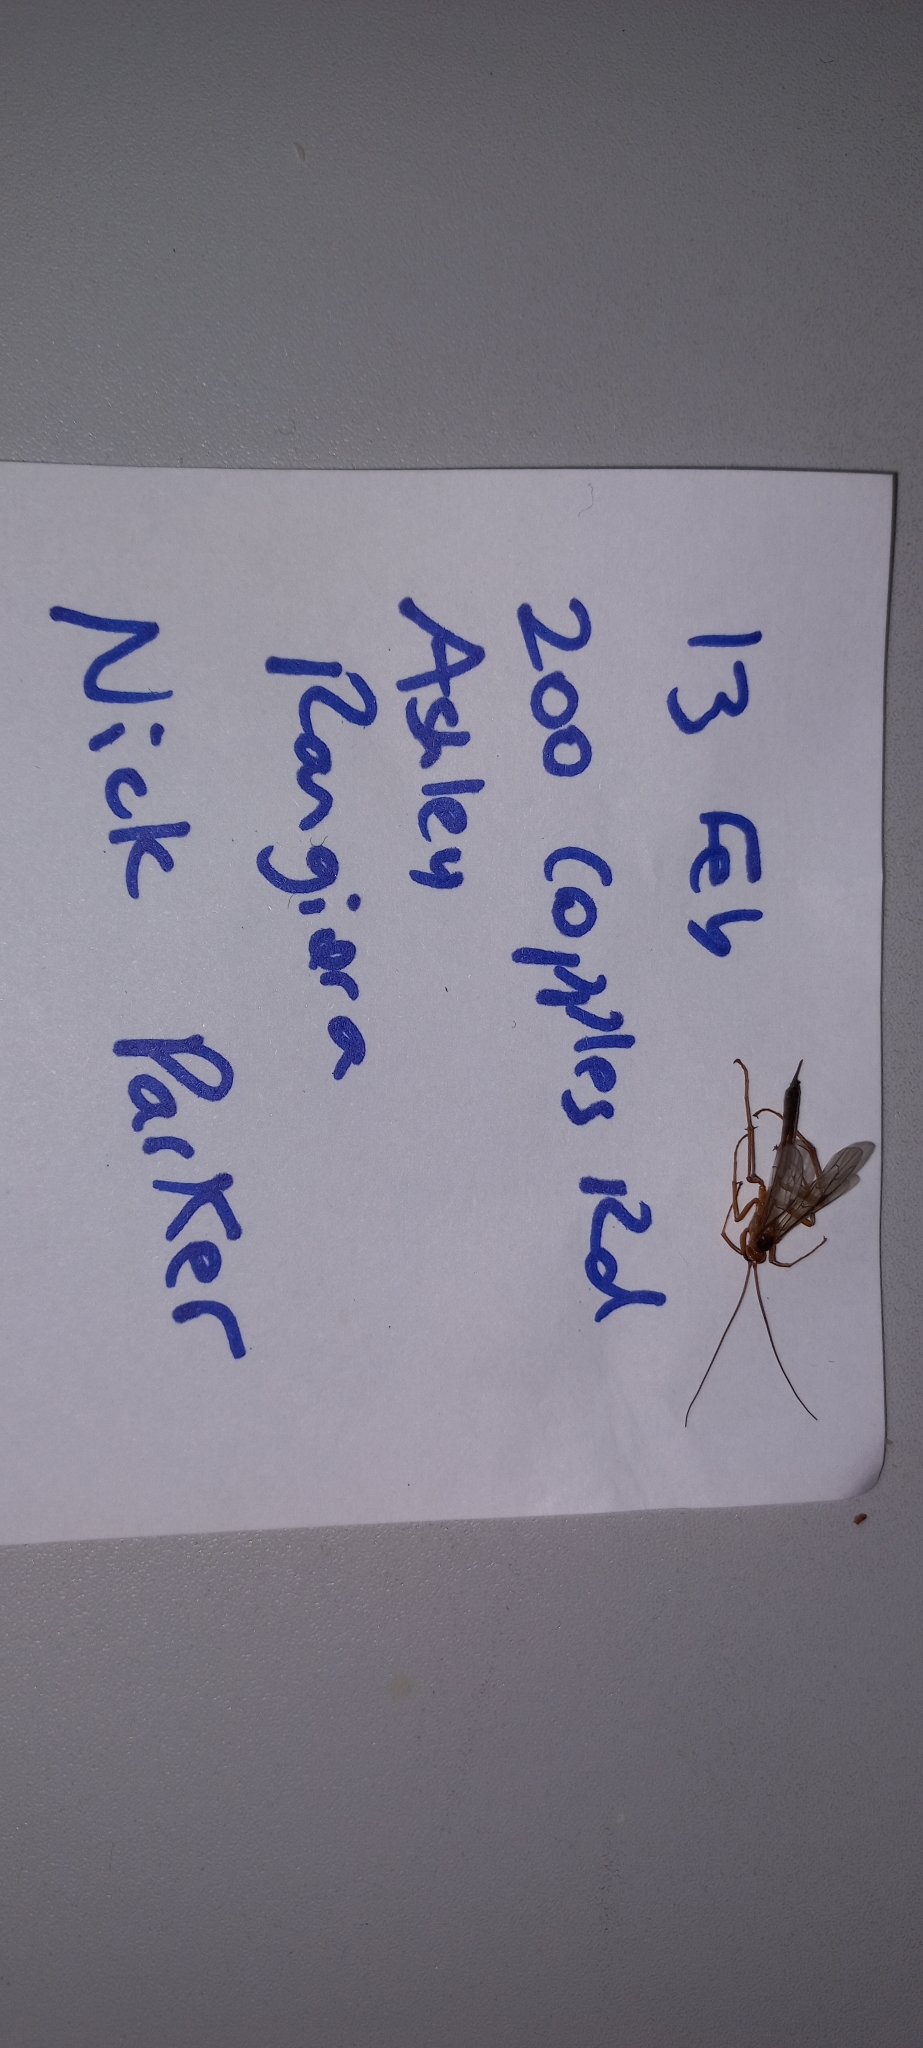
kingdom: Animalia
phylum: Arthropoda
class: Insecta
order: Hymenoptera
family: Ichneumonidae
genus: Netelia
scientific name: Netelia ephippiata
